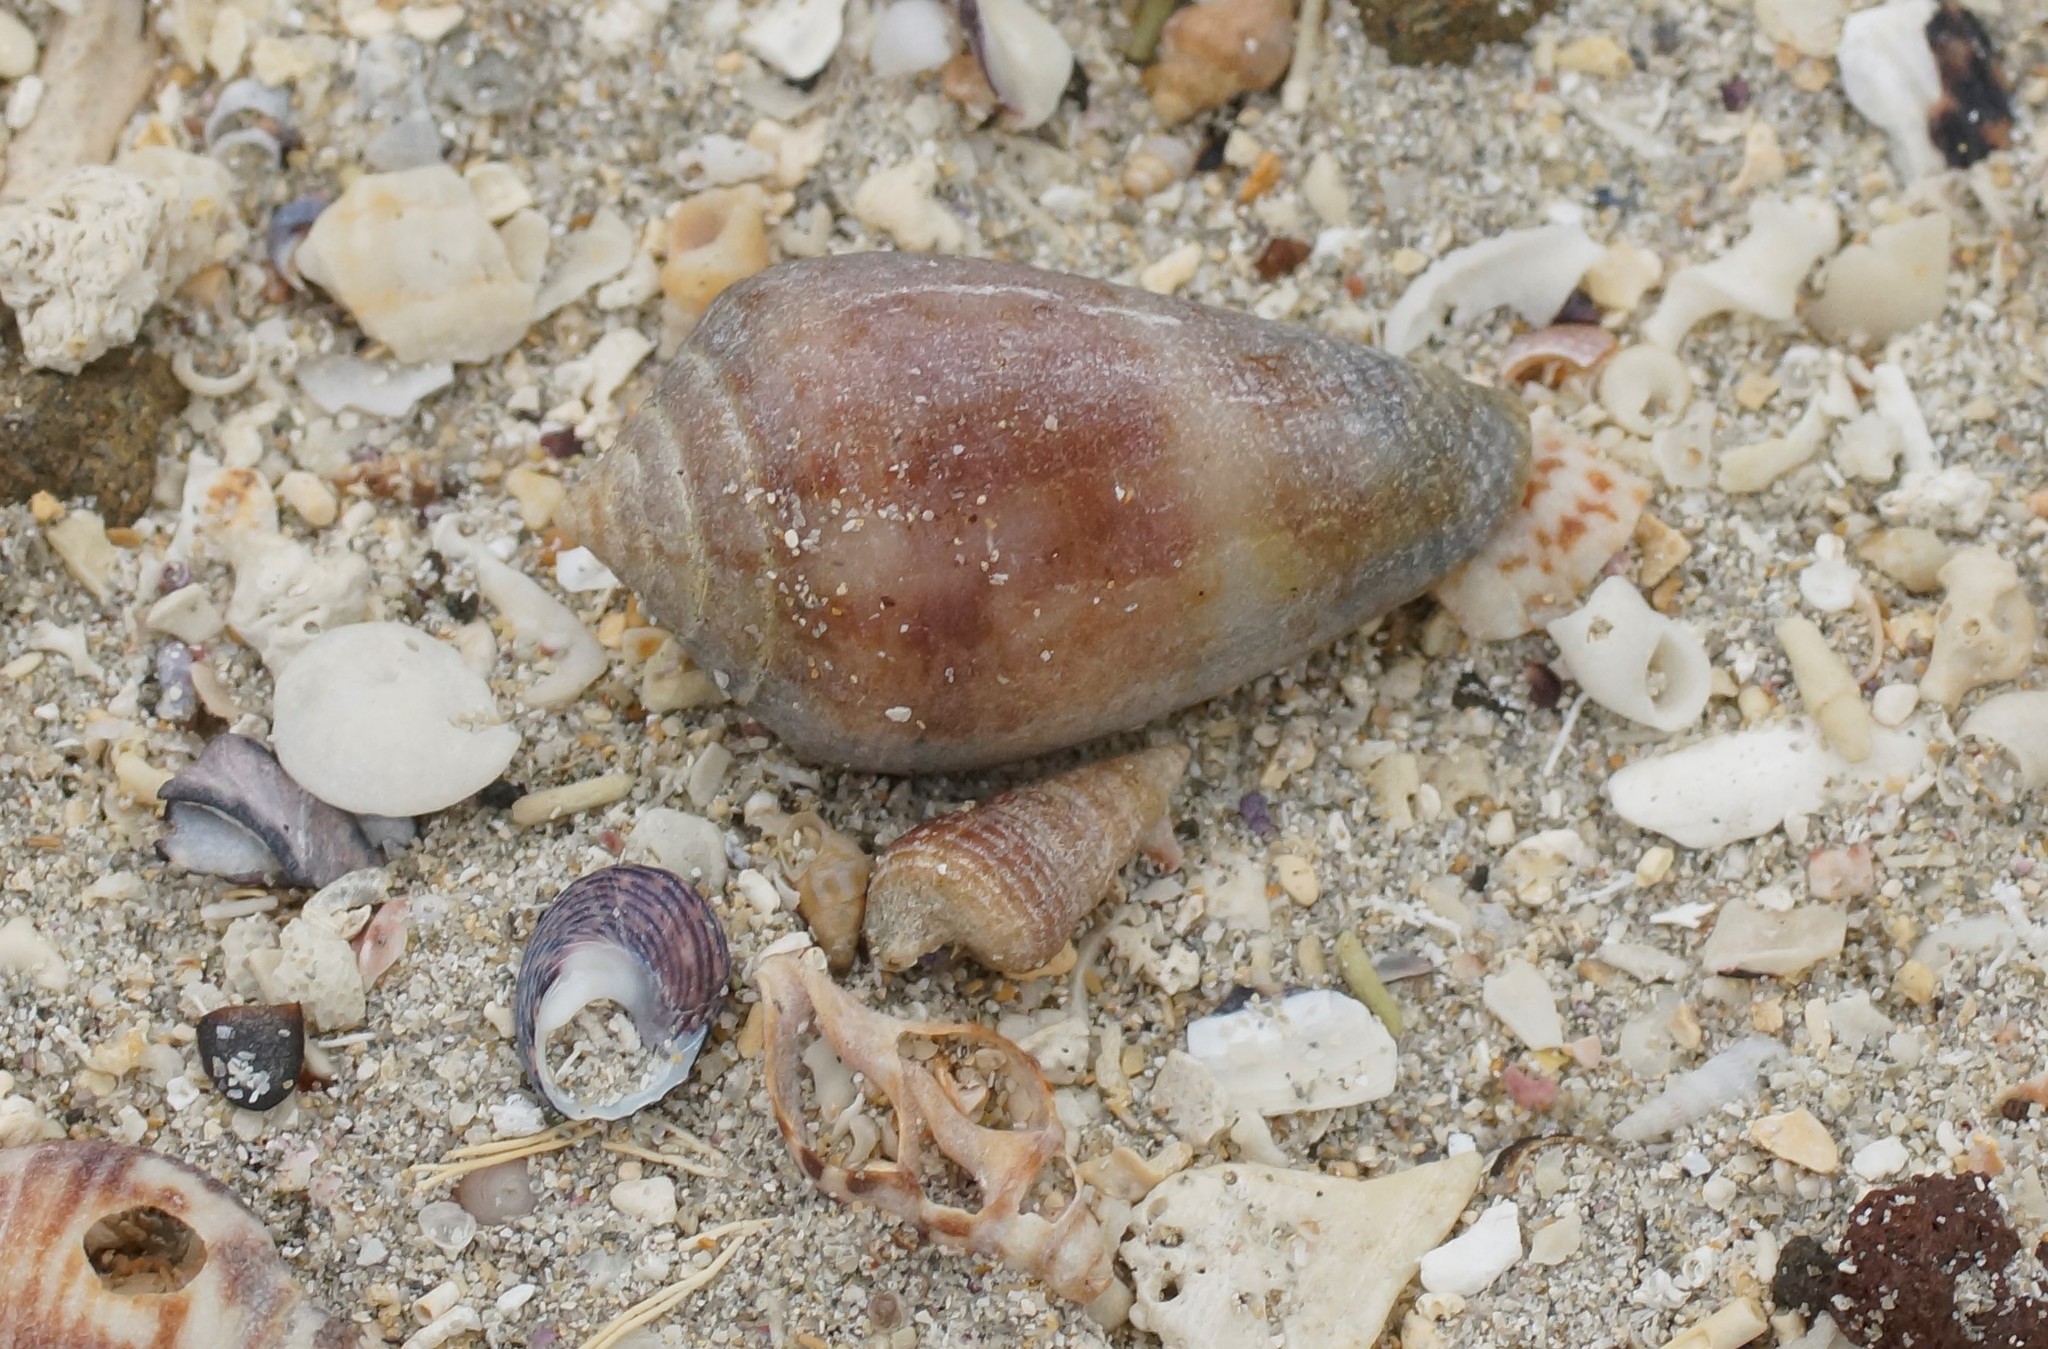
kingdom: Animalia
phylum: Mollusca
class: Gastropoda
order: Neogastropoda
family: Conidae
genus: Conus
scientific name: Conus anemone
